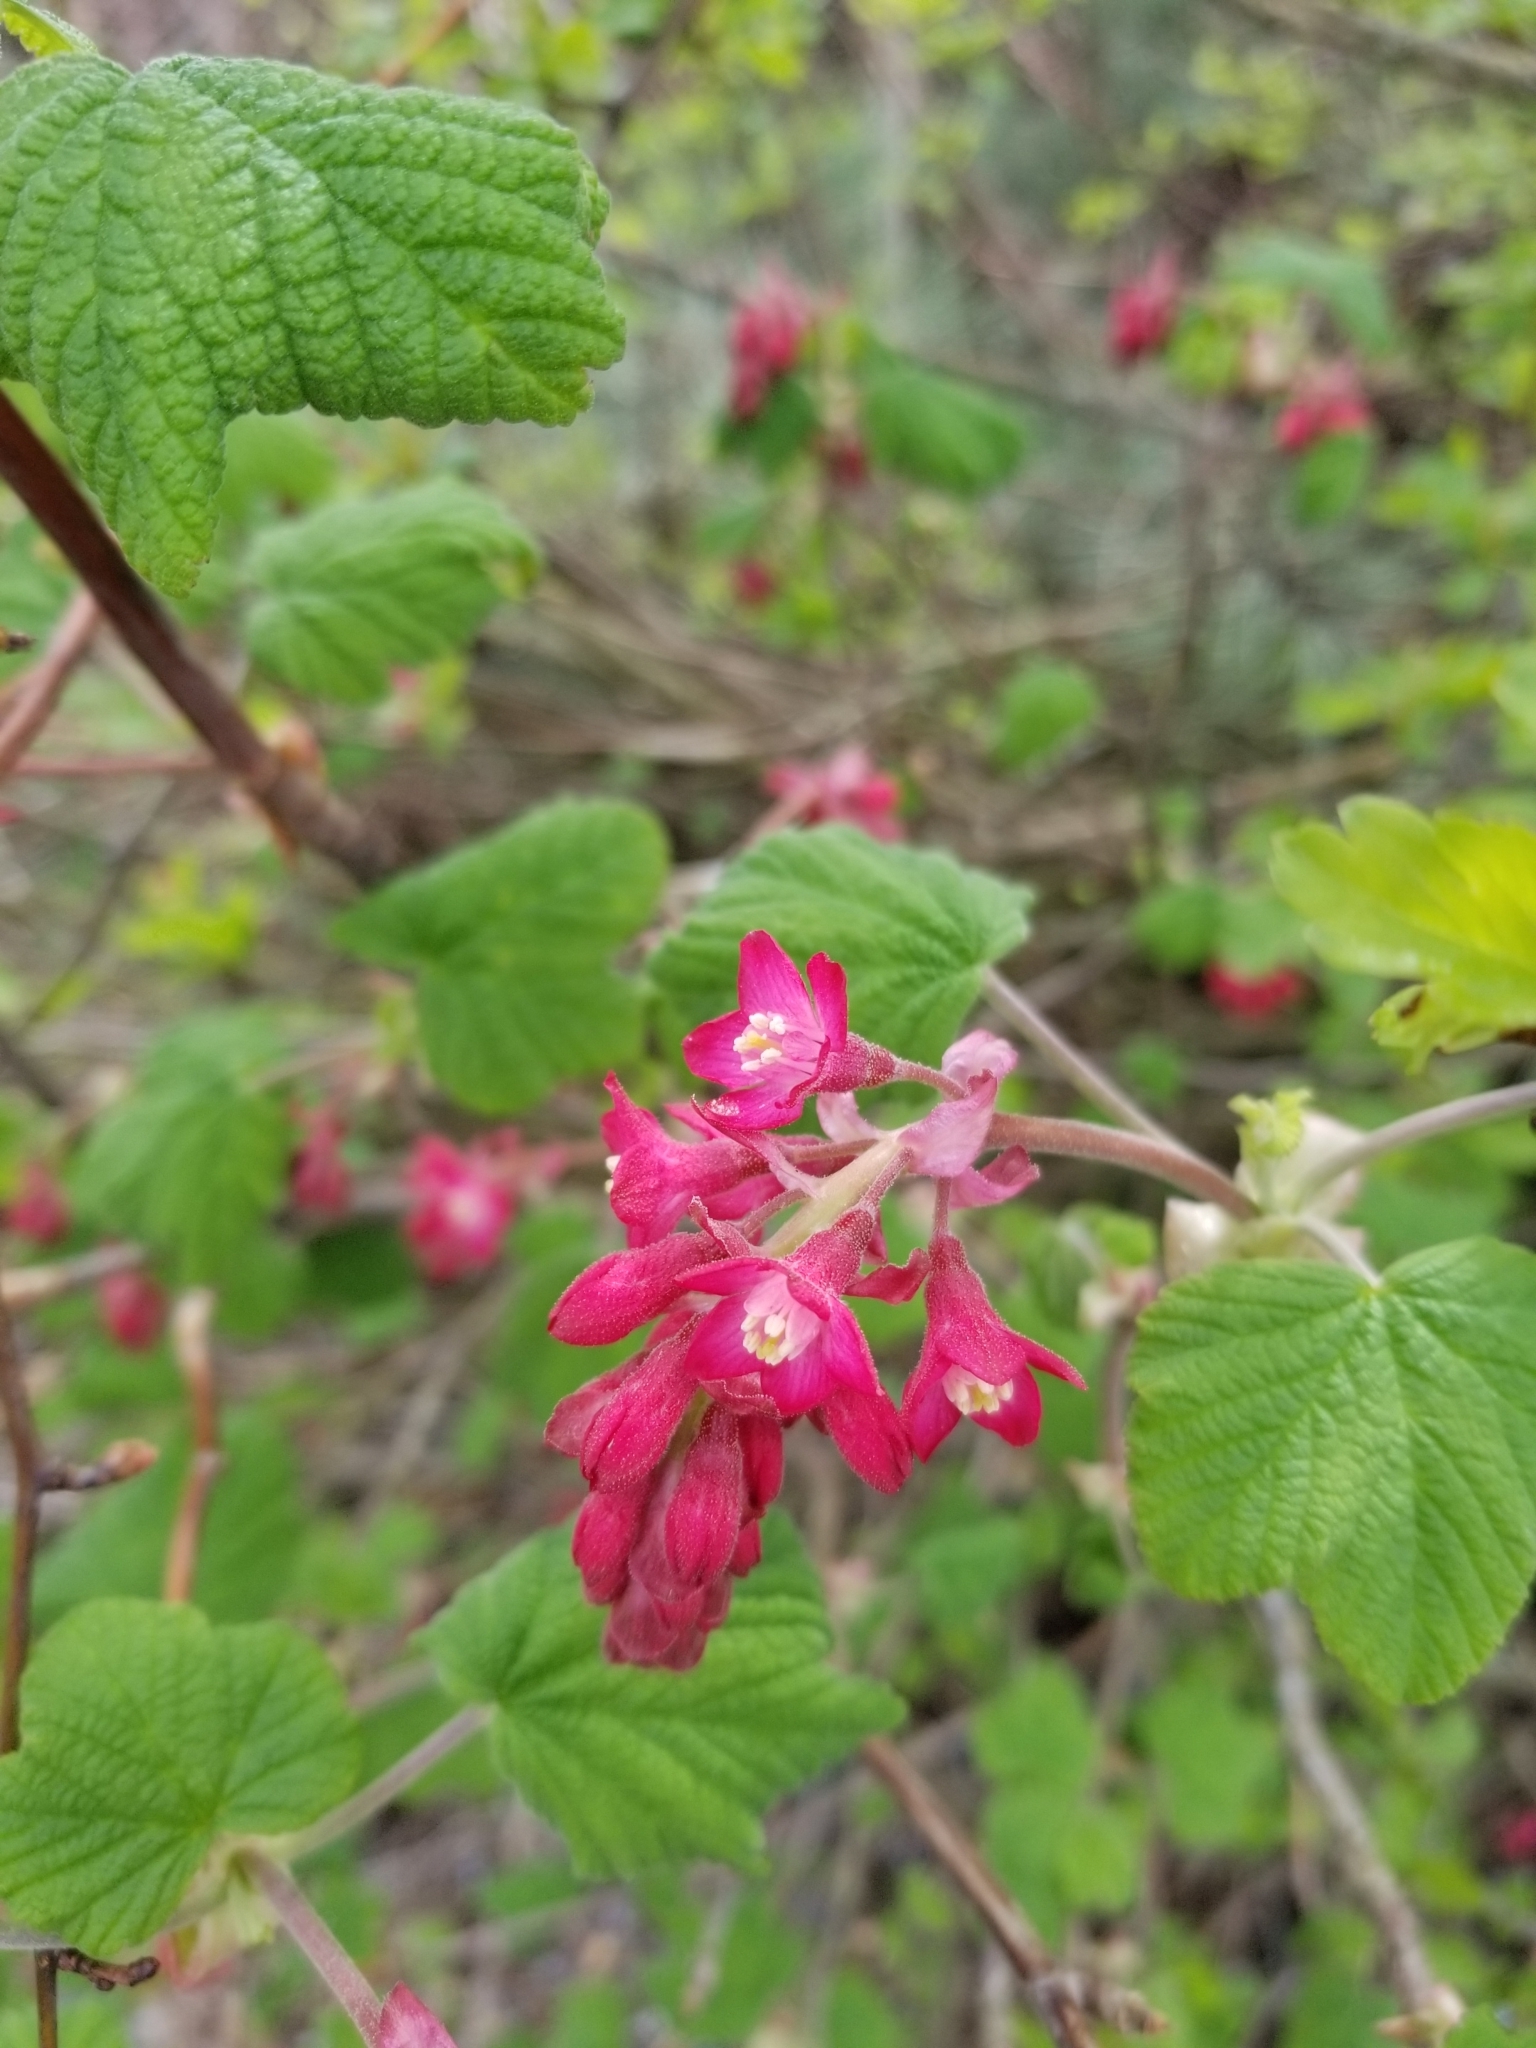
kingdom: Plantae
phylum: Tracheophyta
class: Magnoliopsida
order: Saxifragales
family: Grossulariaceae
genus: Ribes
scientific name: Ribes sanguineum
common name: Flowering currant
